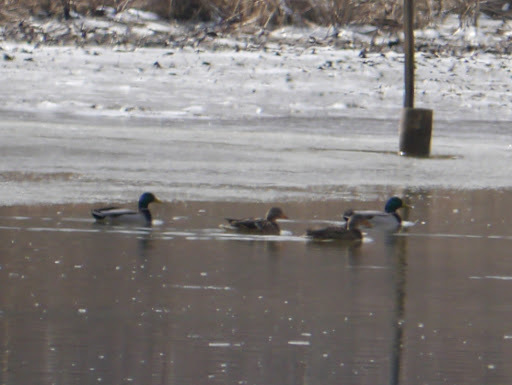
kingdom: Animalia
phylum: Chordata
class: Aves
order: Anseriformes
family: Anatidae
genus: Anas
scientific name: Anas platyrhynchos
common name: Mallard
